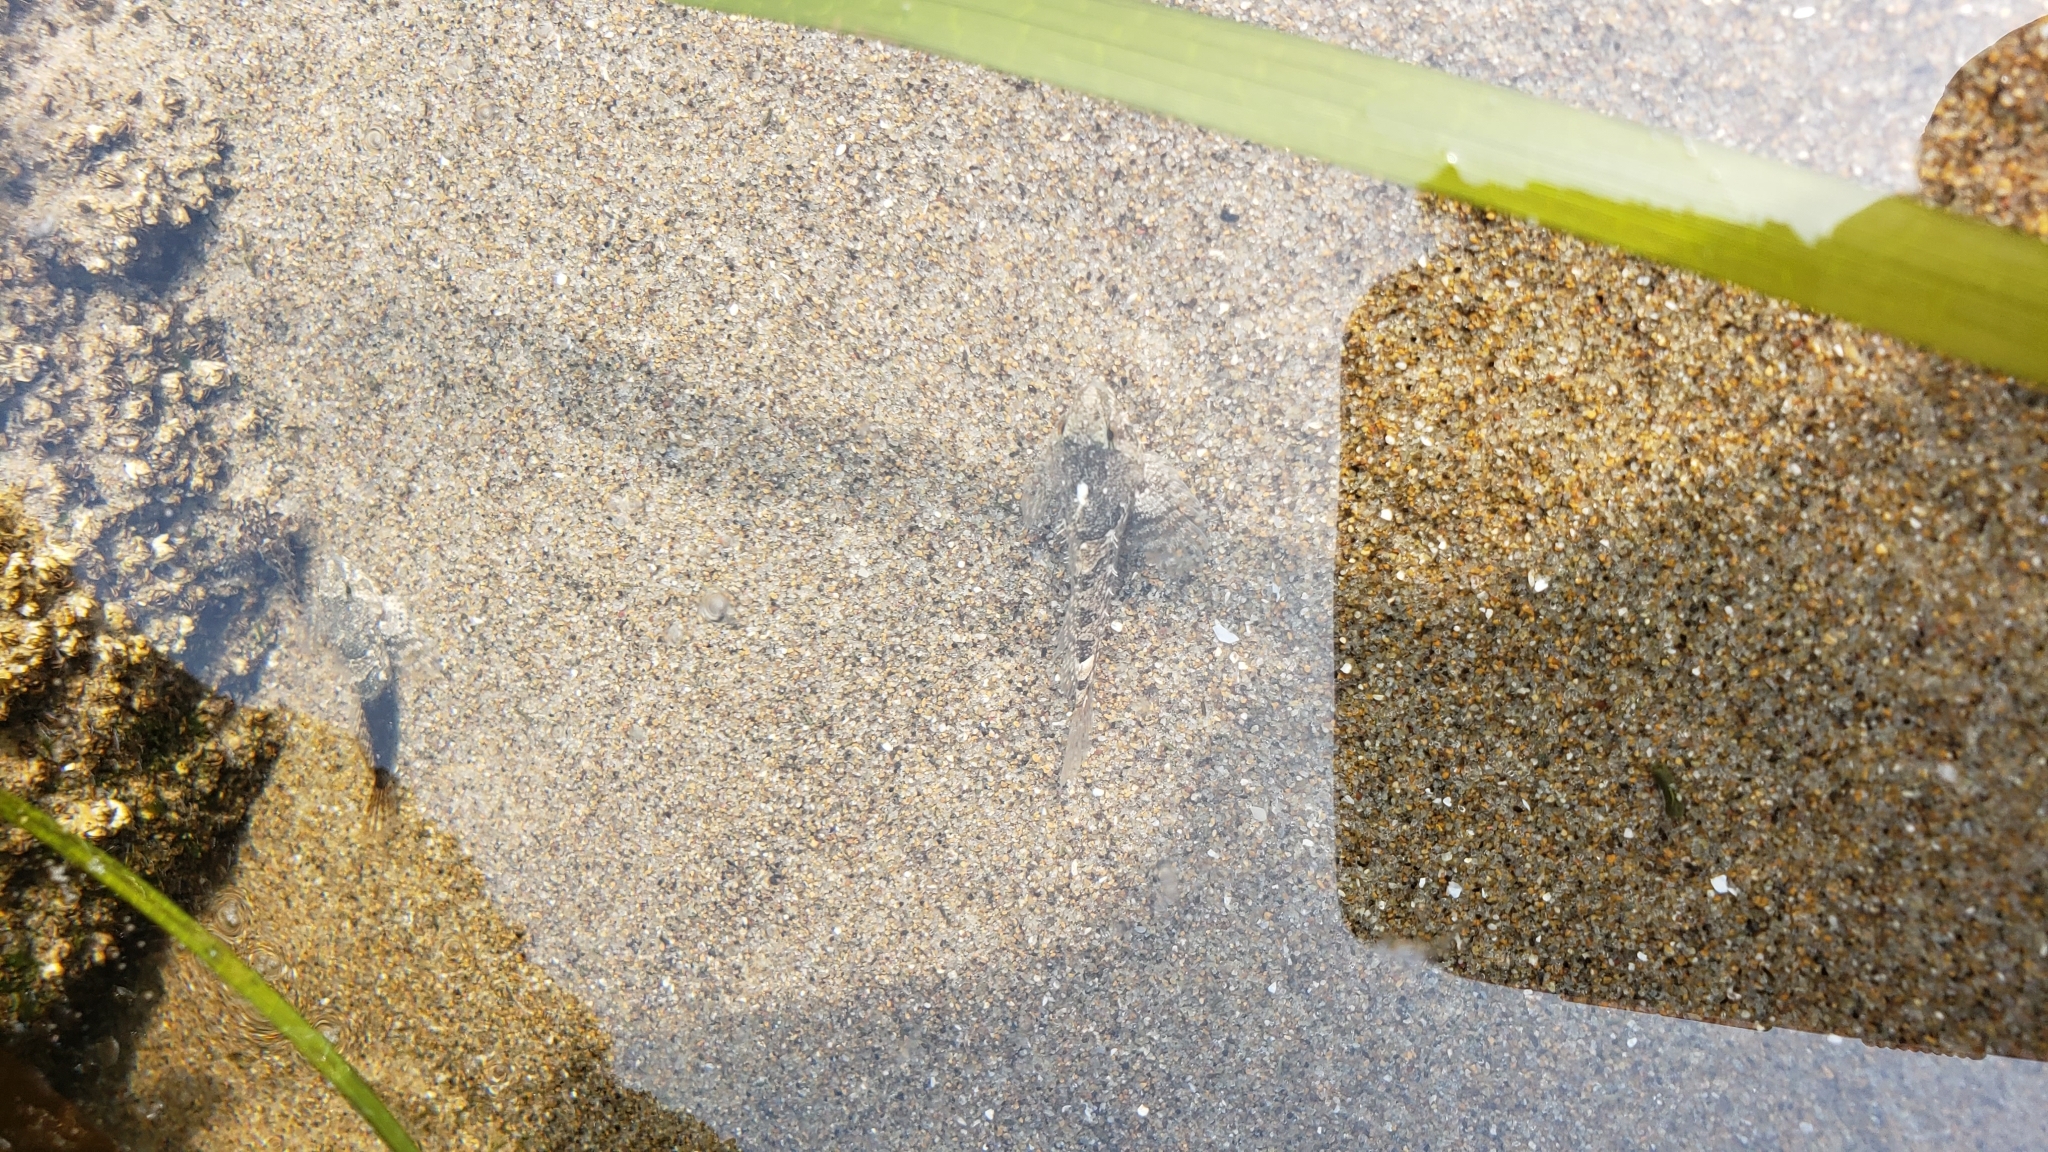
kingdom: Animalia
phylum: Chordata
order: Scorpaeniformes
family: Cottidae
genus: Oligocottus
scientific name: Oligocottus maculosus
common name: Tidepool sculpin
